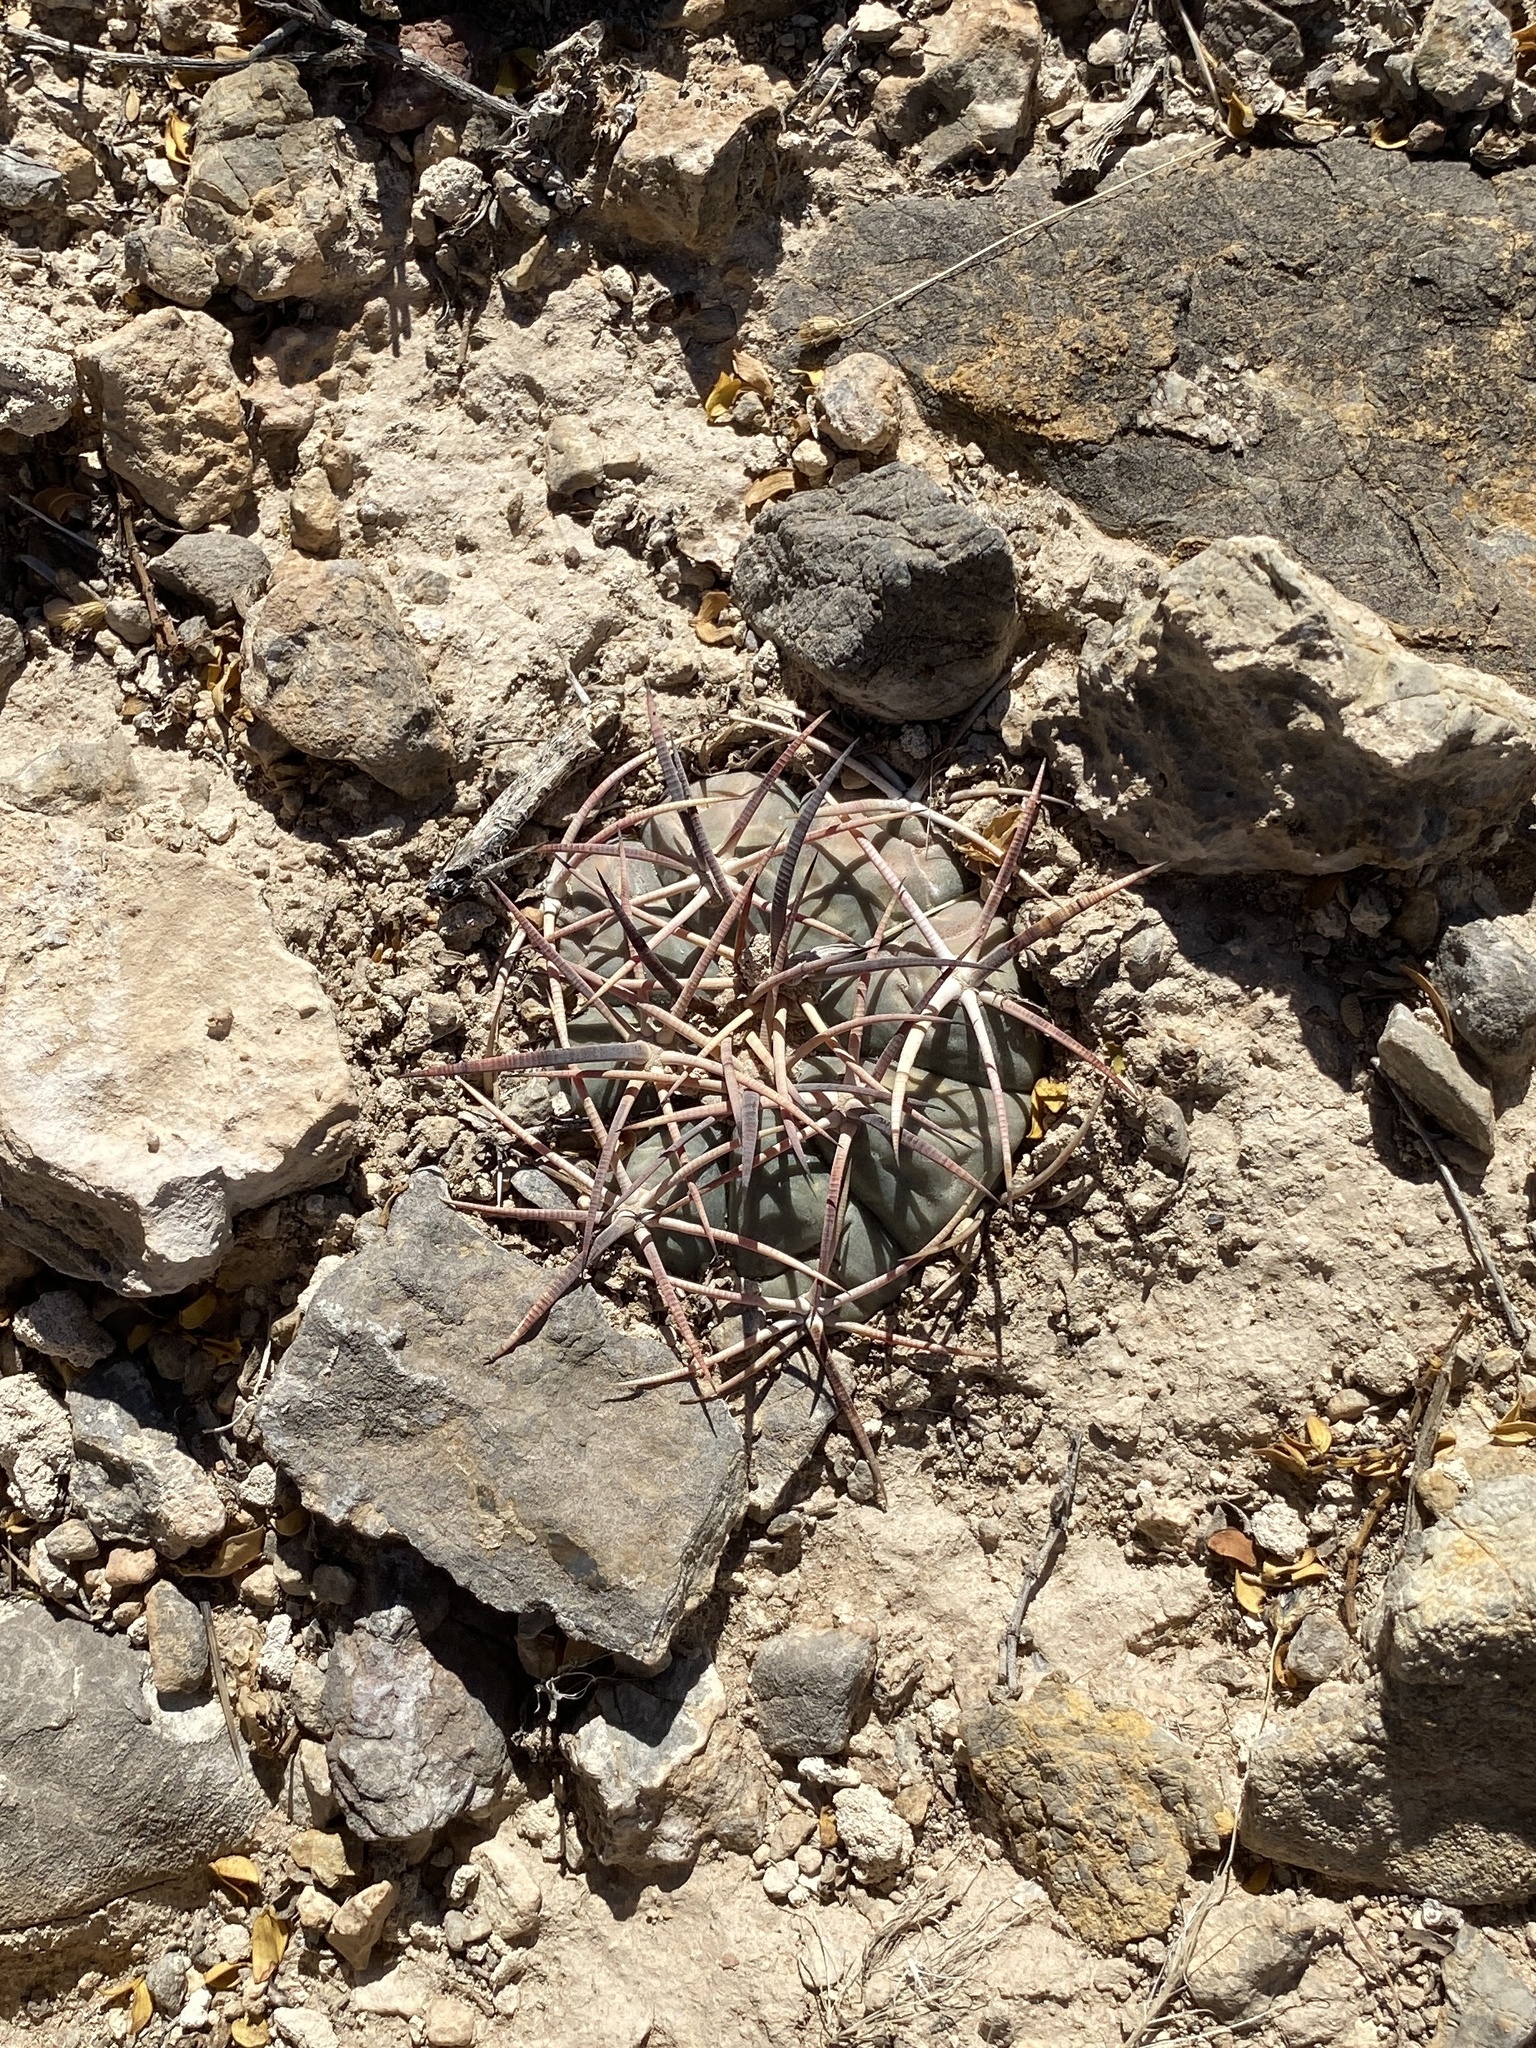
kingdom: Plantae
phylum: Tracheophyta
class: Magnoliopsida
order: Caryophyllales
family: Cactaceae
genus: Echinocactus
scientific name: Echinocactus horizonthalonius
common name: Devilshead
